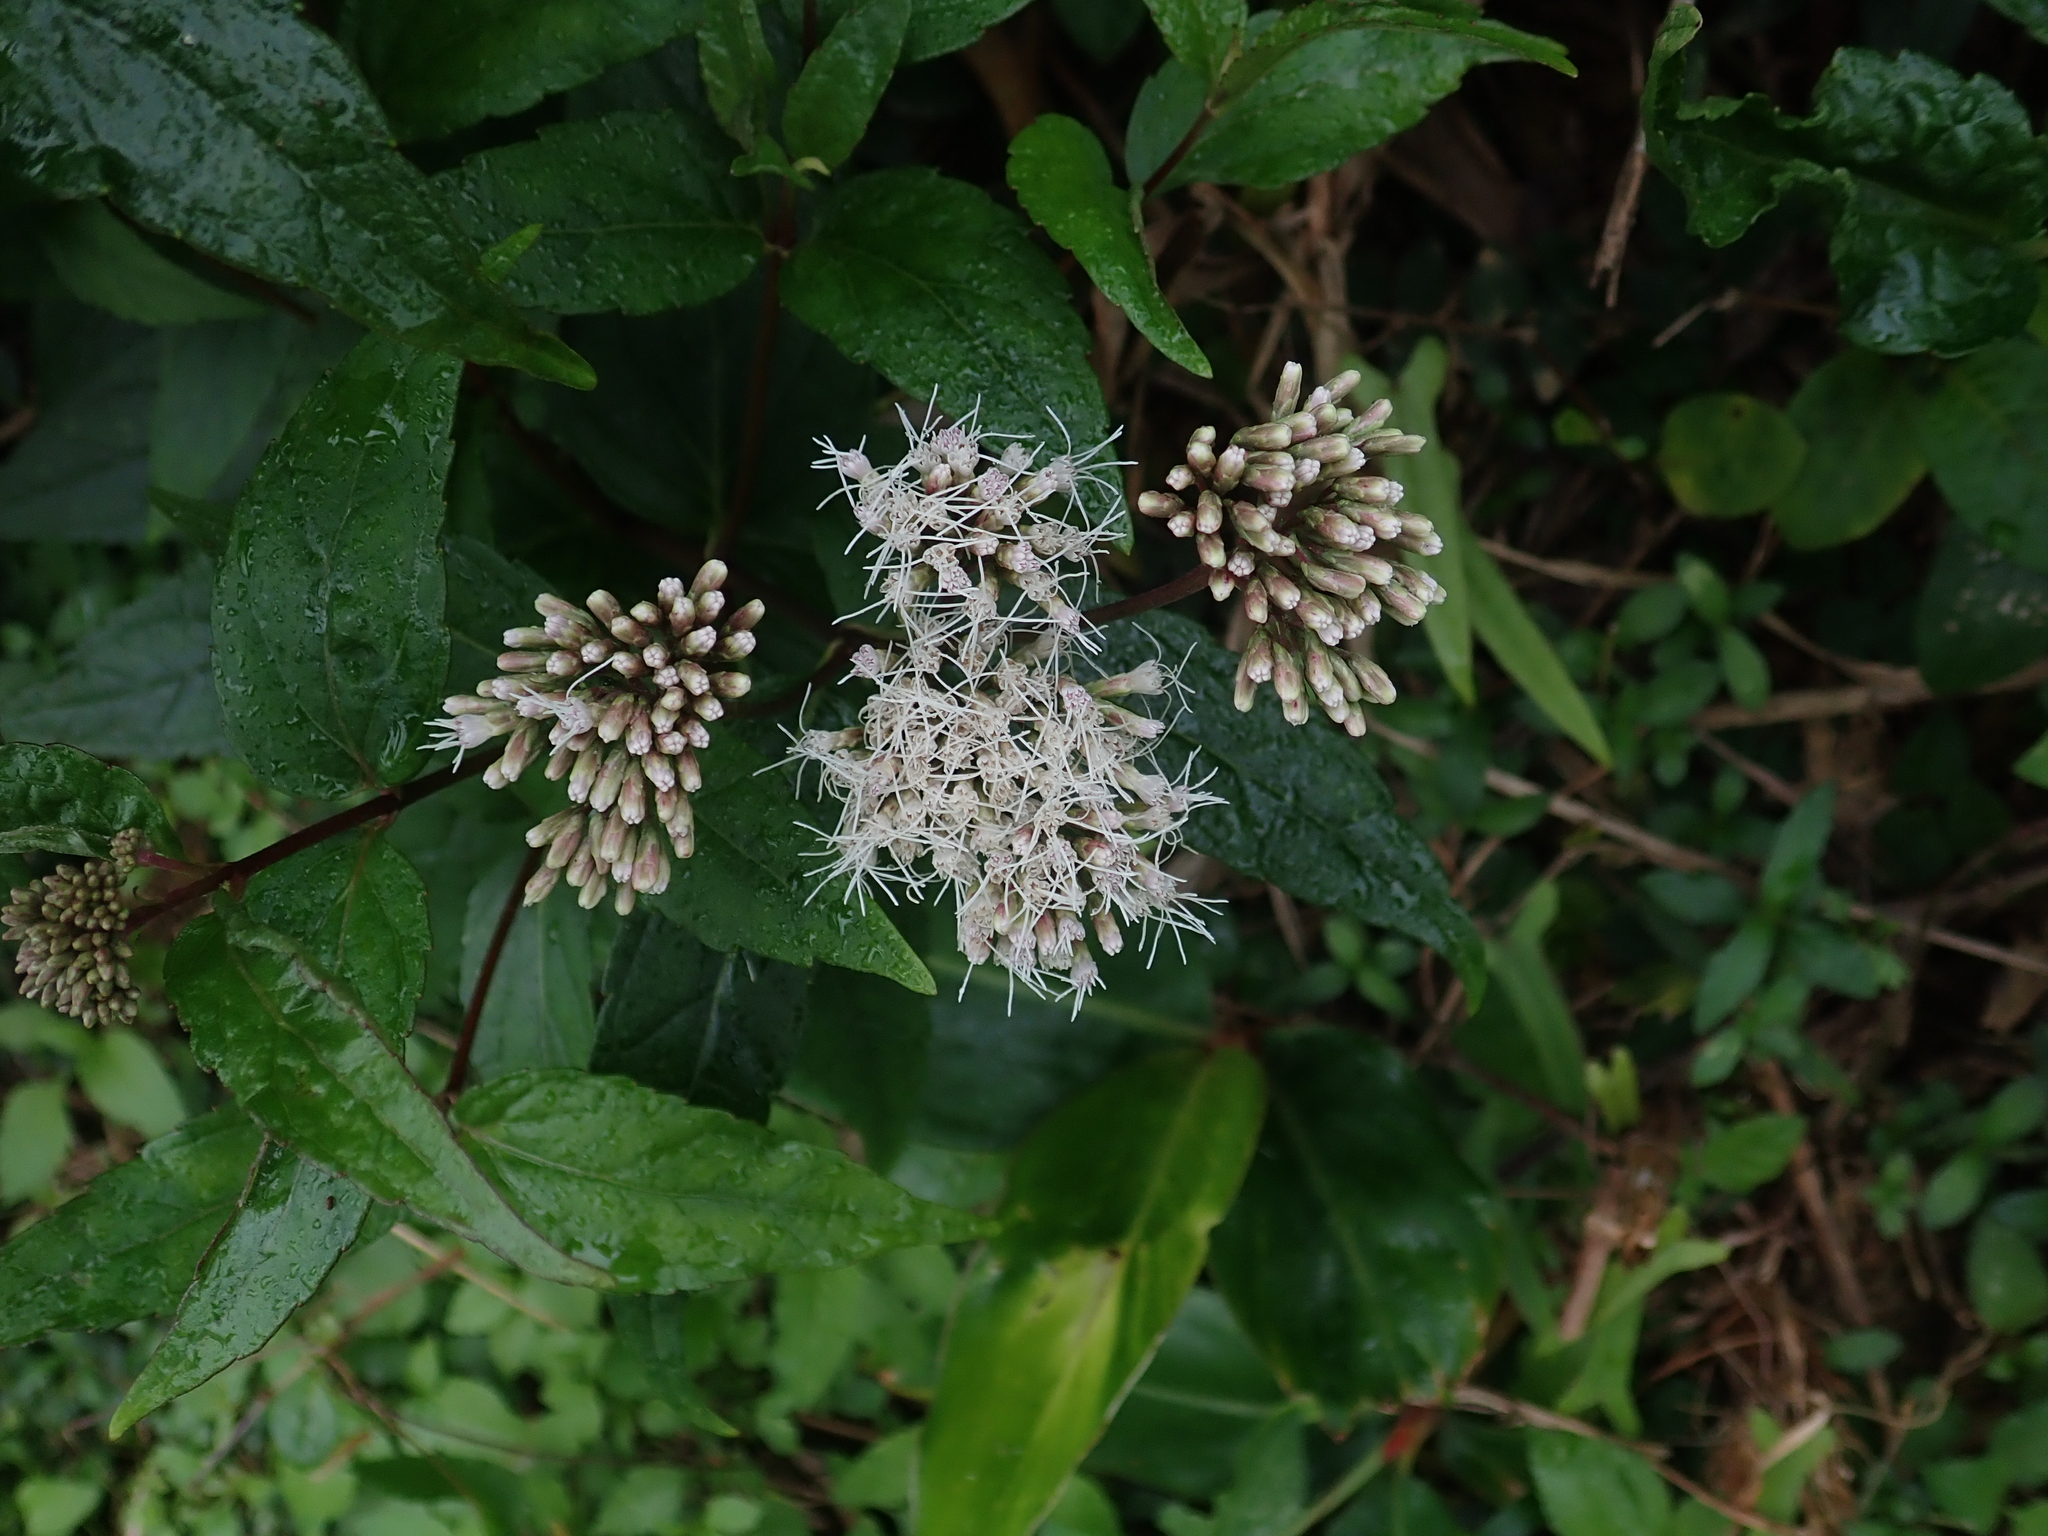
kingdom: Plantae
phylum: Tracheophyta
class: Magnoliopsida
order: Asterales
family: Asteraceae
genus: Eupatorium
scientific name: Eupatorium luchuense
